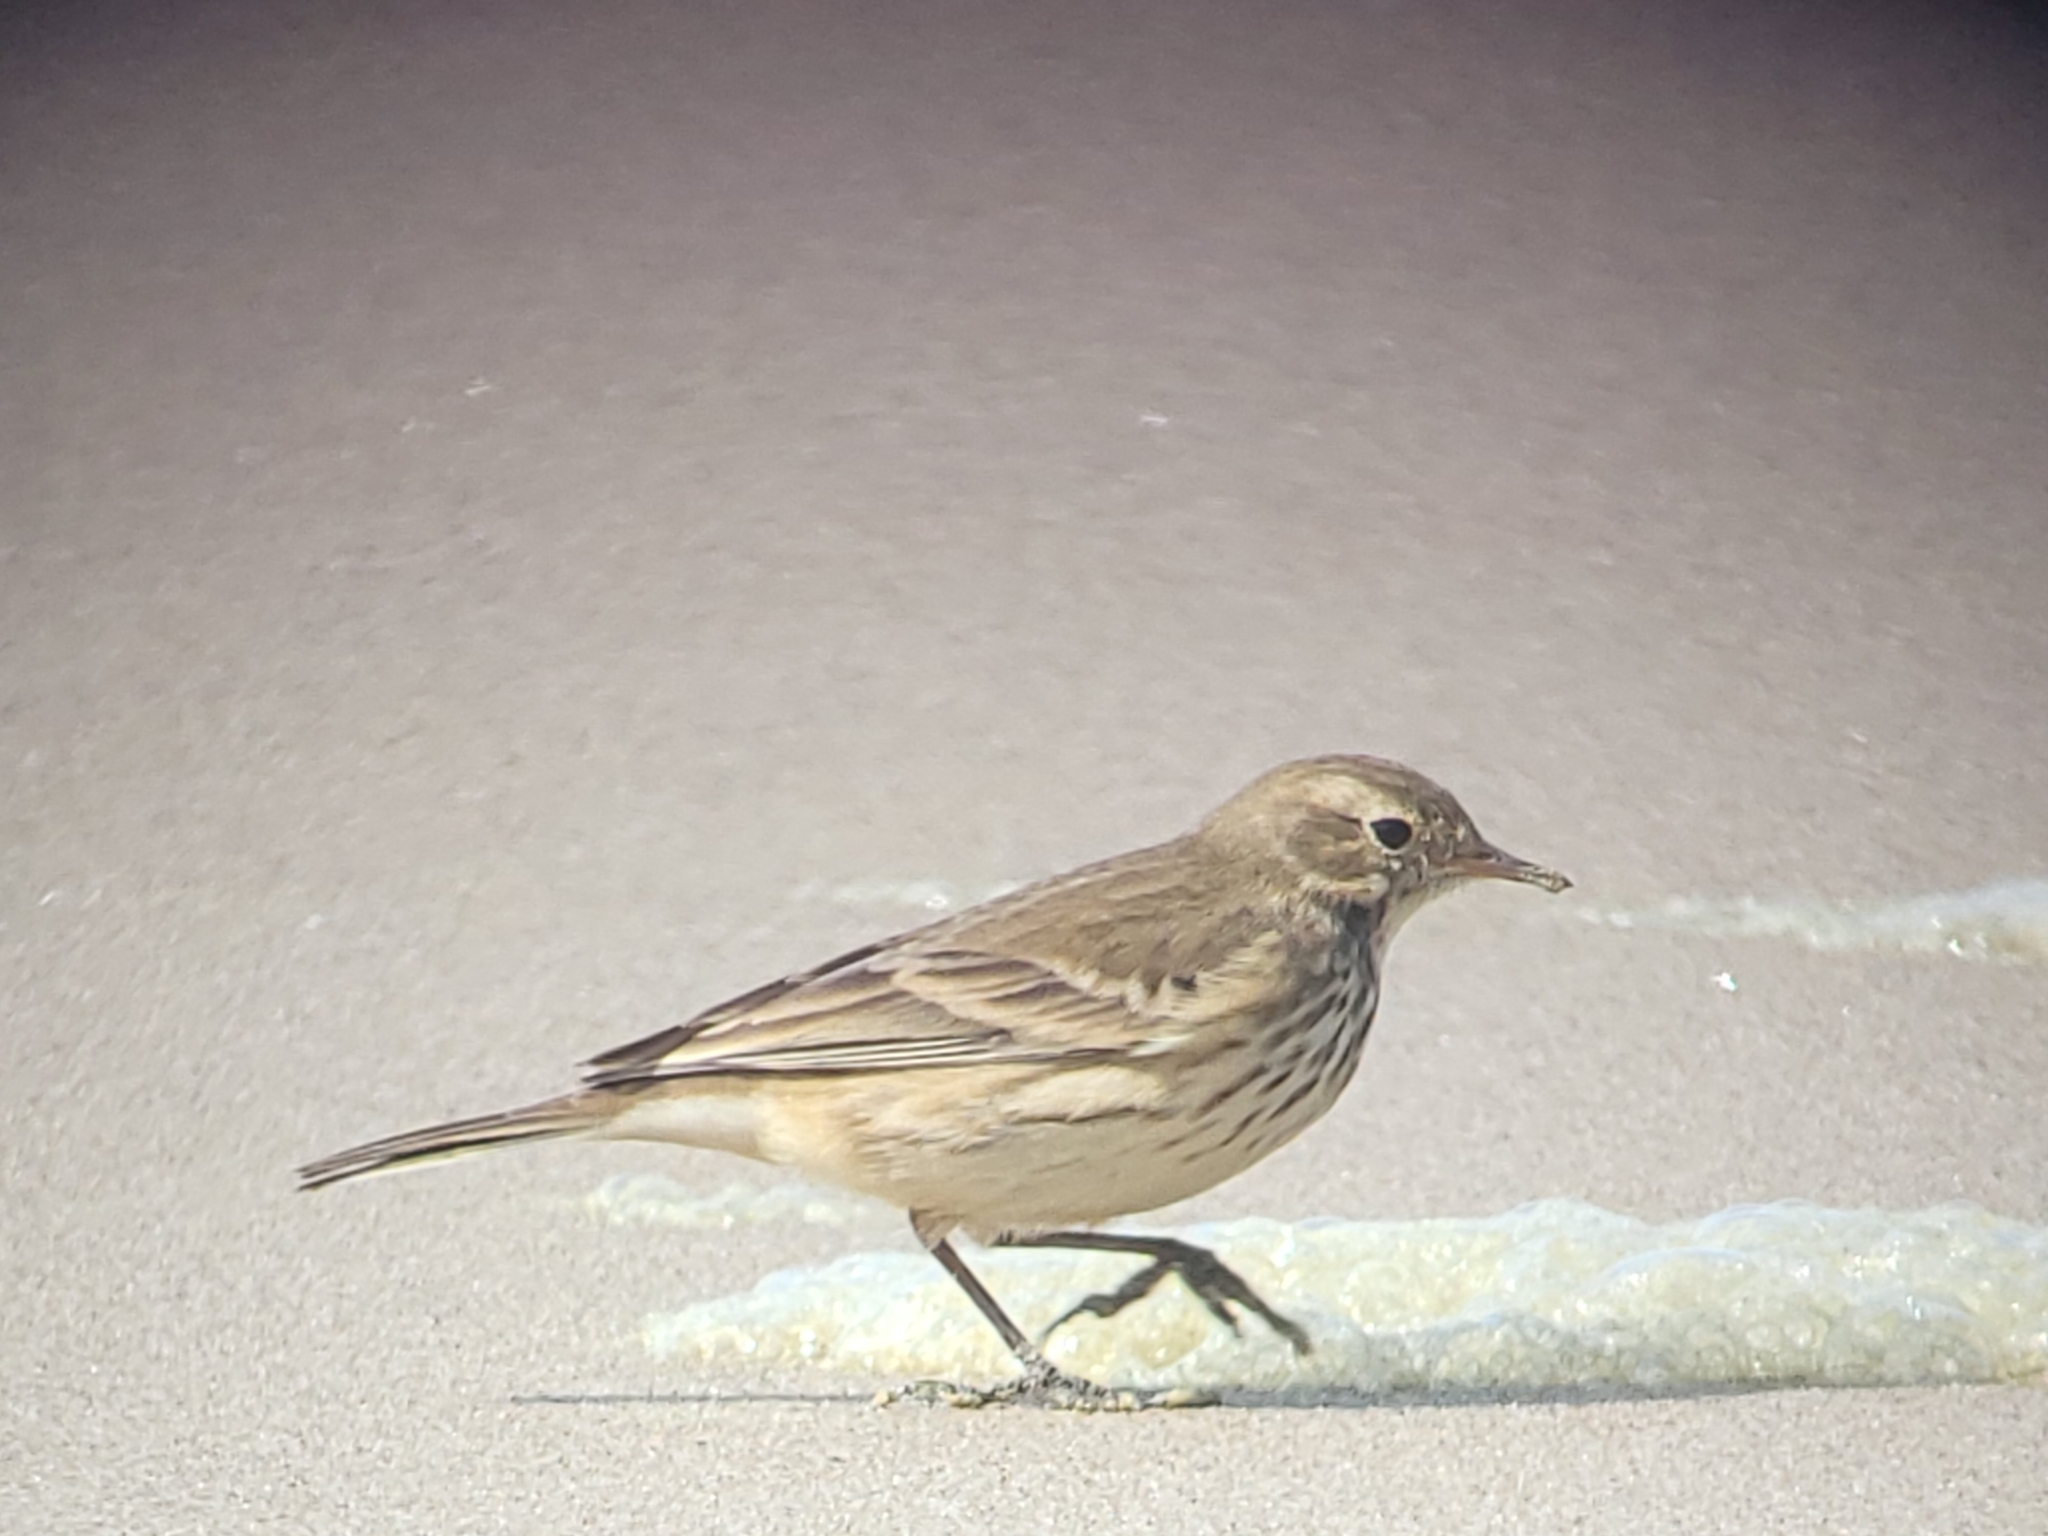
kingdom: Animalia
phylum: Chordata
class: Aves
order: Passeriformes
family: Motacillidae
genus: Anthus
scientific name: Anthus rubescens
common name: Buff-bellied pipit
